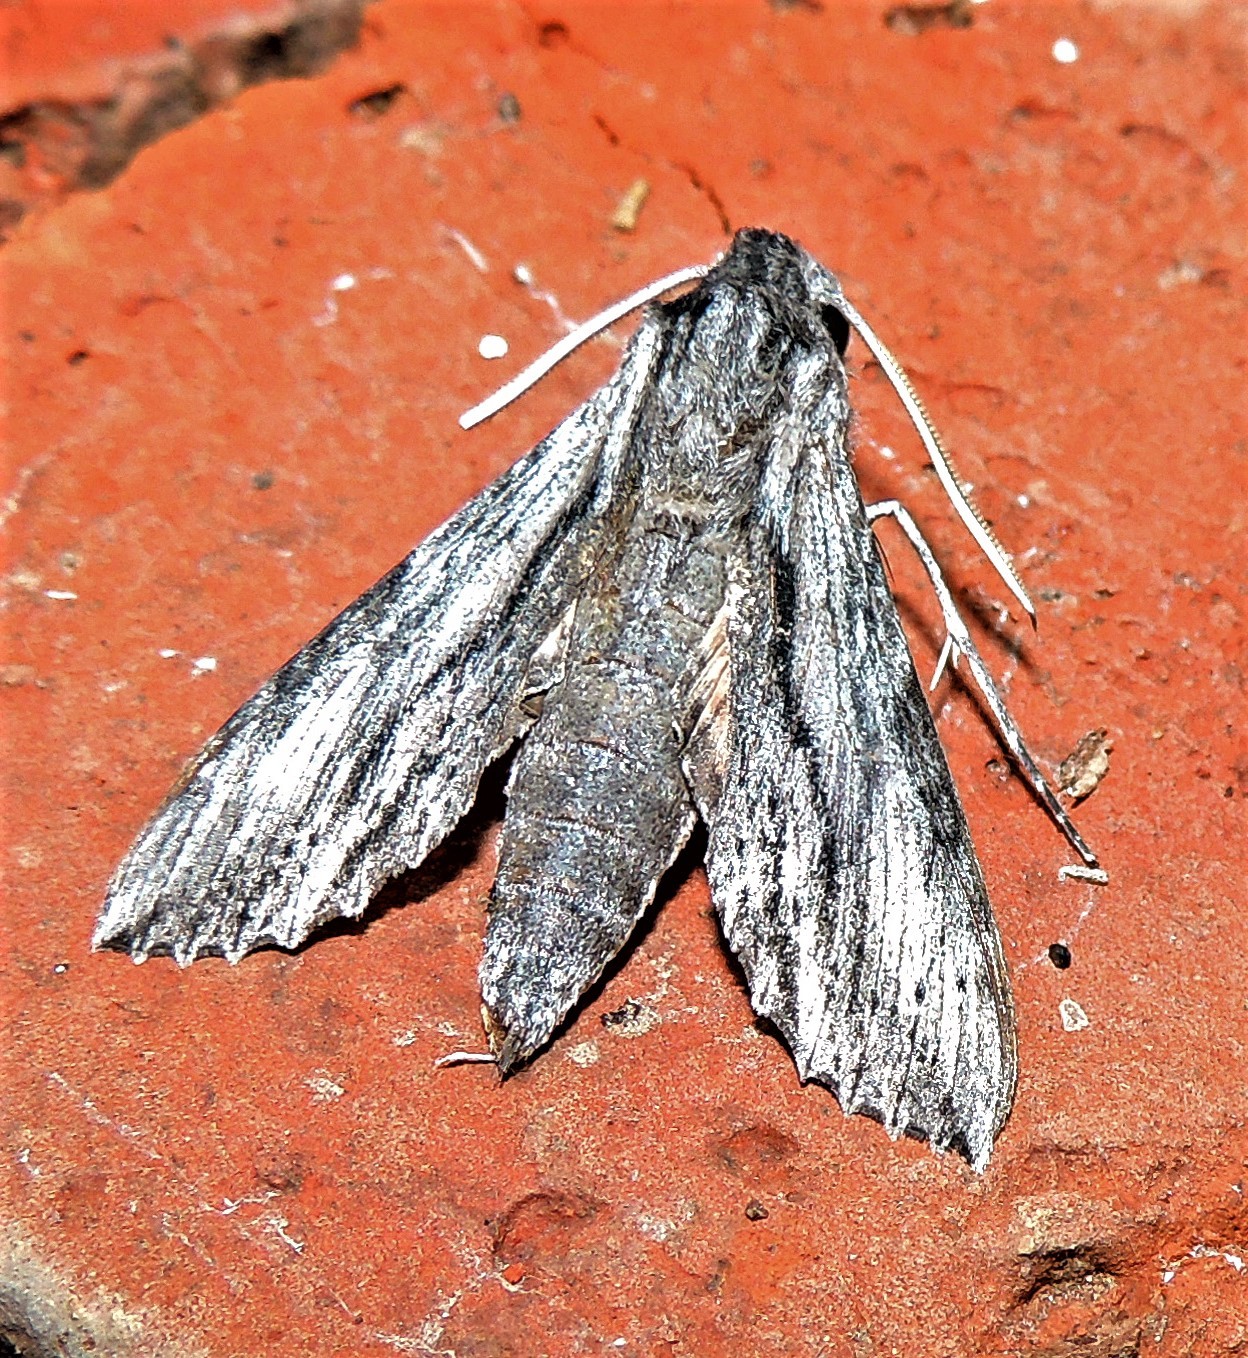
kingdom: Animalia
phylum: Arthropoda
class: Insecta
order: Lepidoptera
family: Sphingidae
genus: Erinnyis
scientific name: Erinnyis obscura
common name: Obscure sphinx
